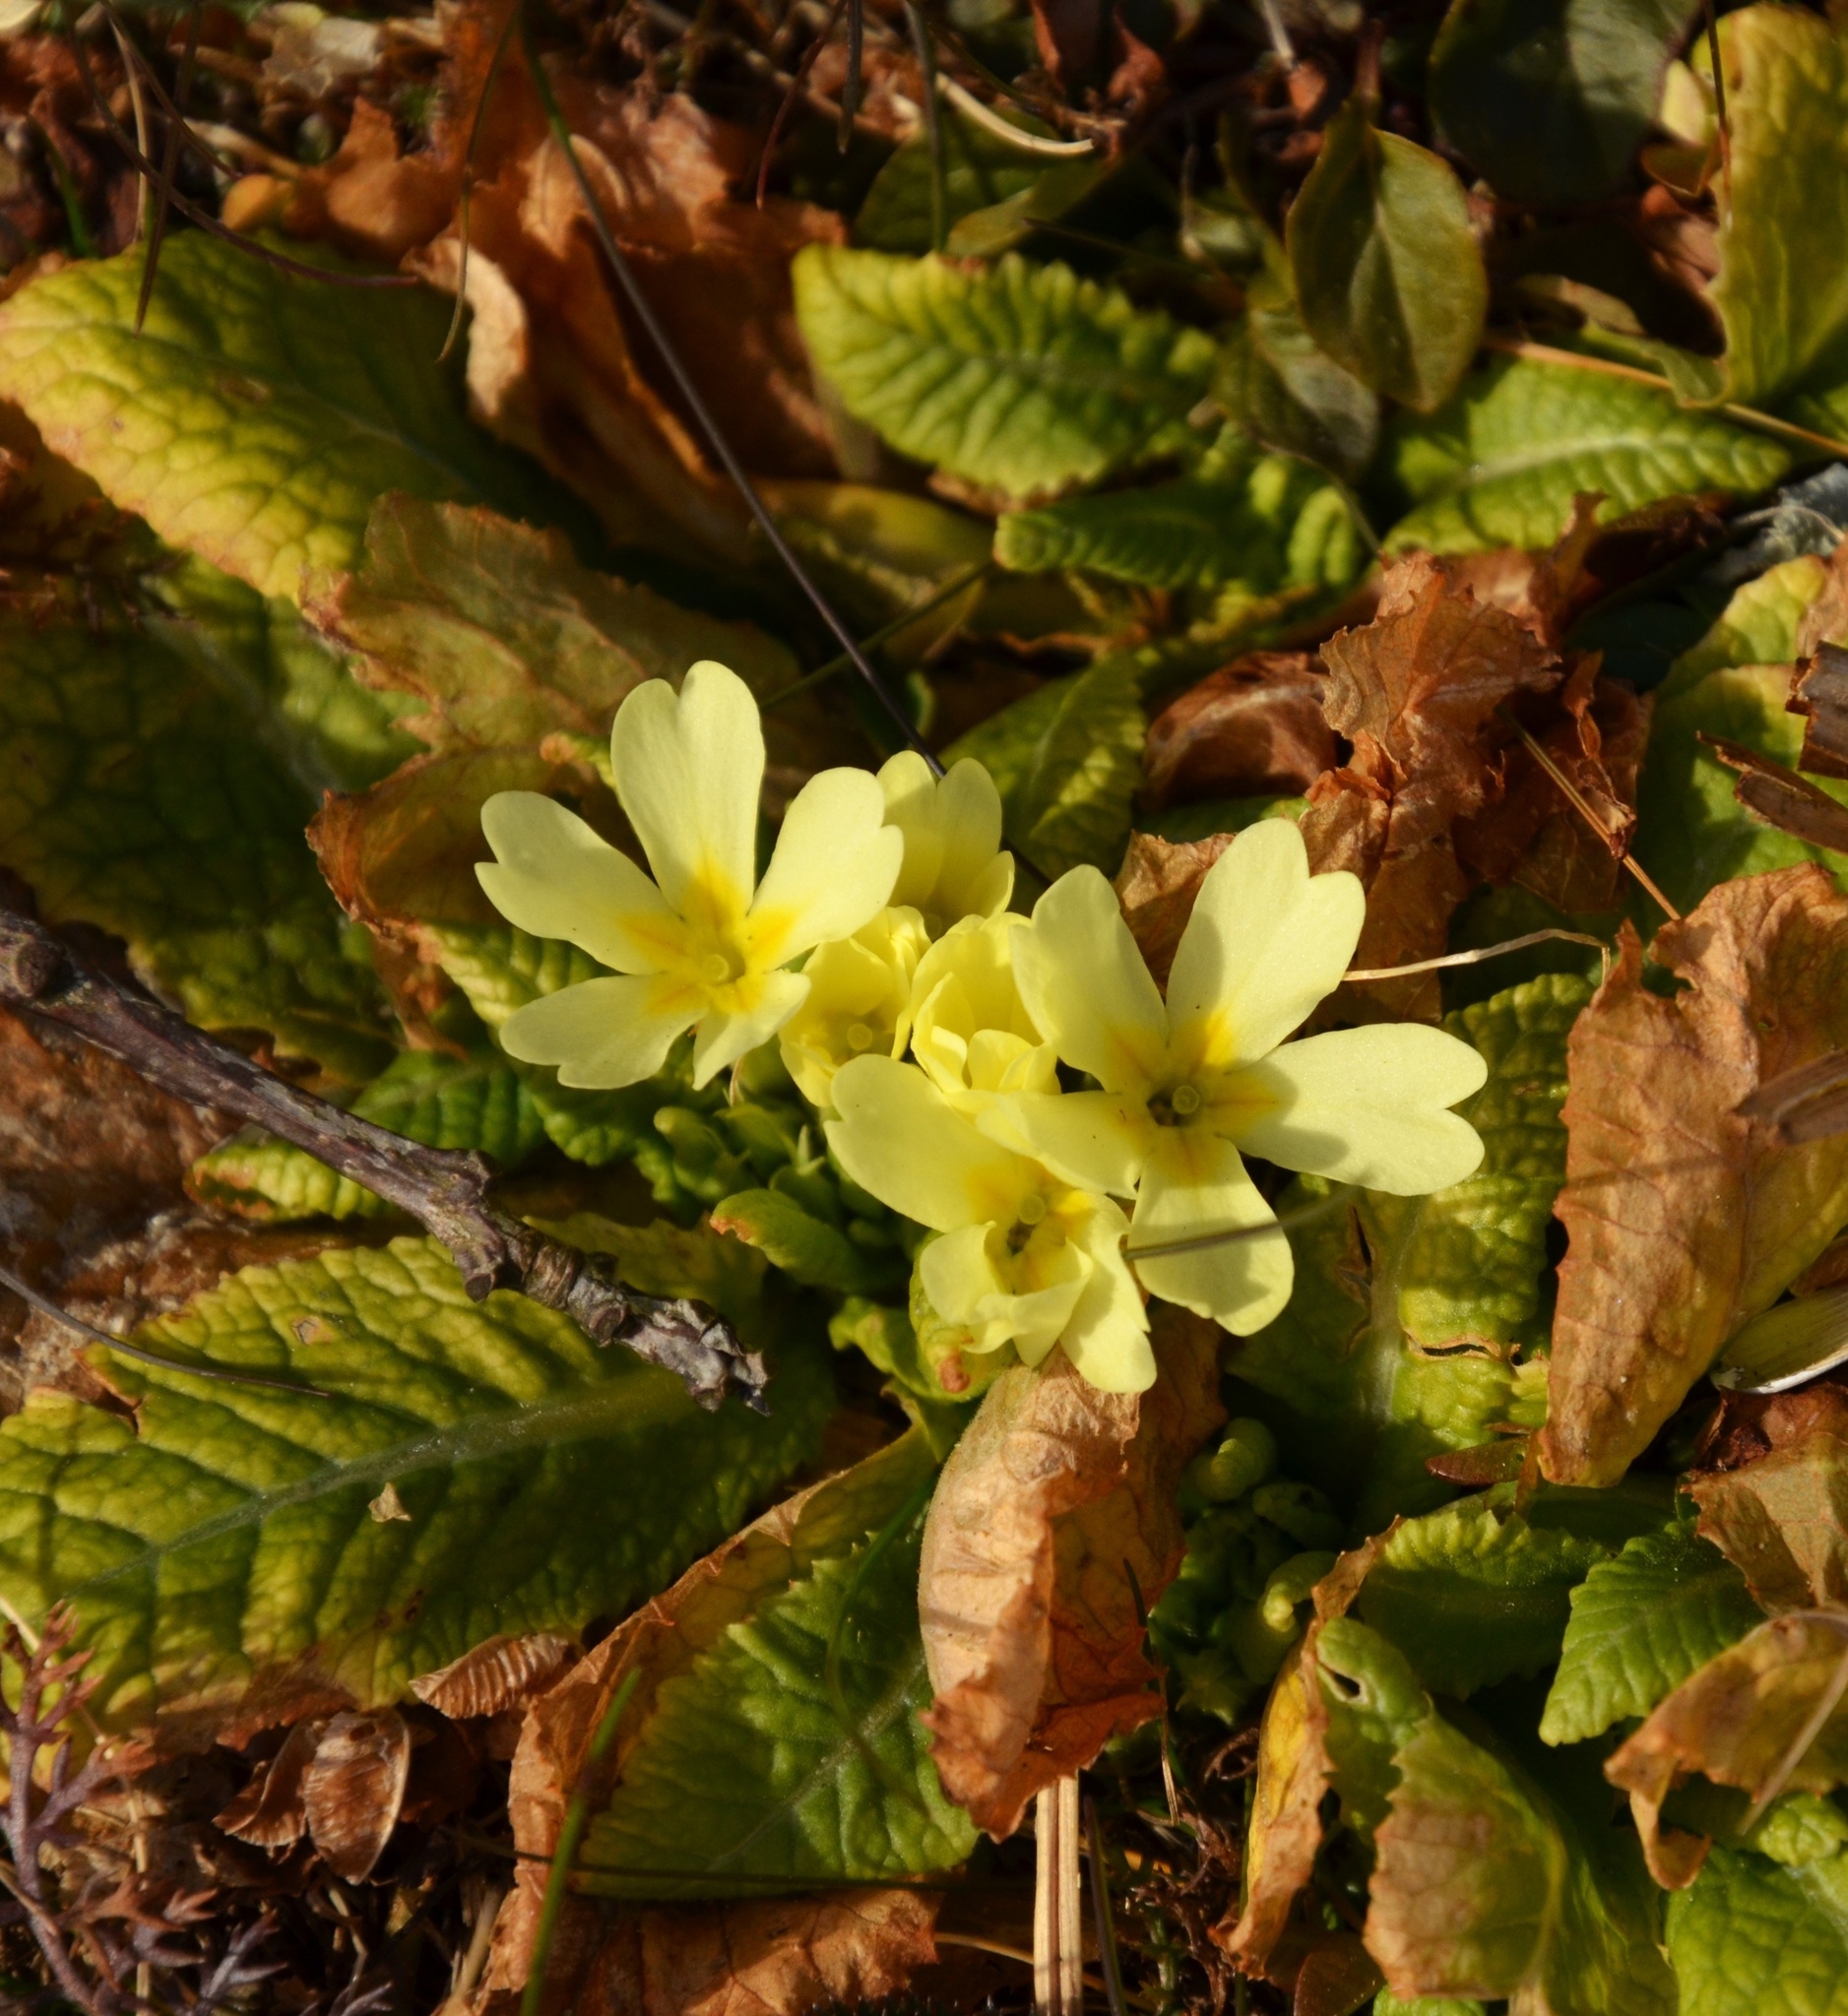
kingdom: Plantae
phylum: Tracheophyta
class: Magnoliopsida
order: Ericales
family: Primulaceae
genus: Primula
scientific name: Primula vulgaris
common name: Primrose
